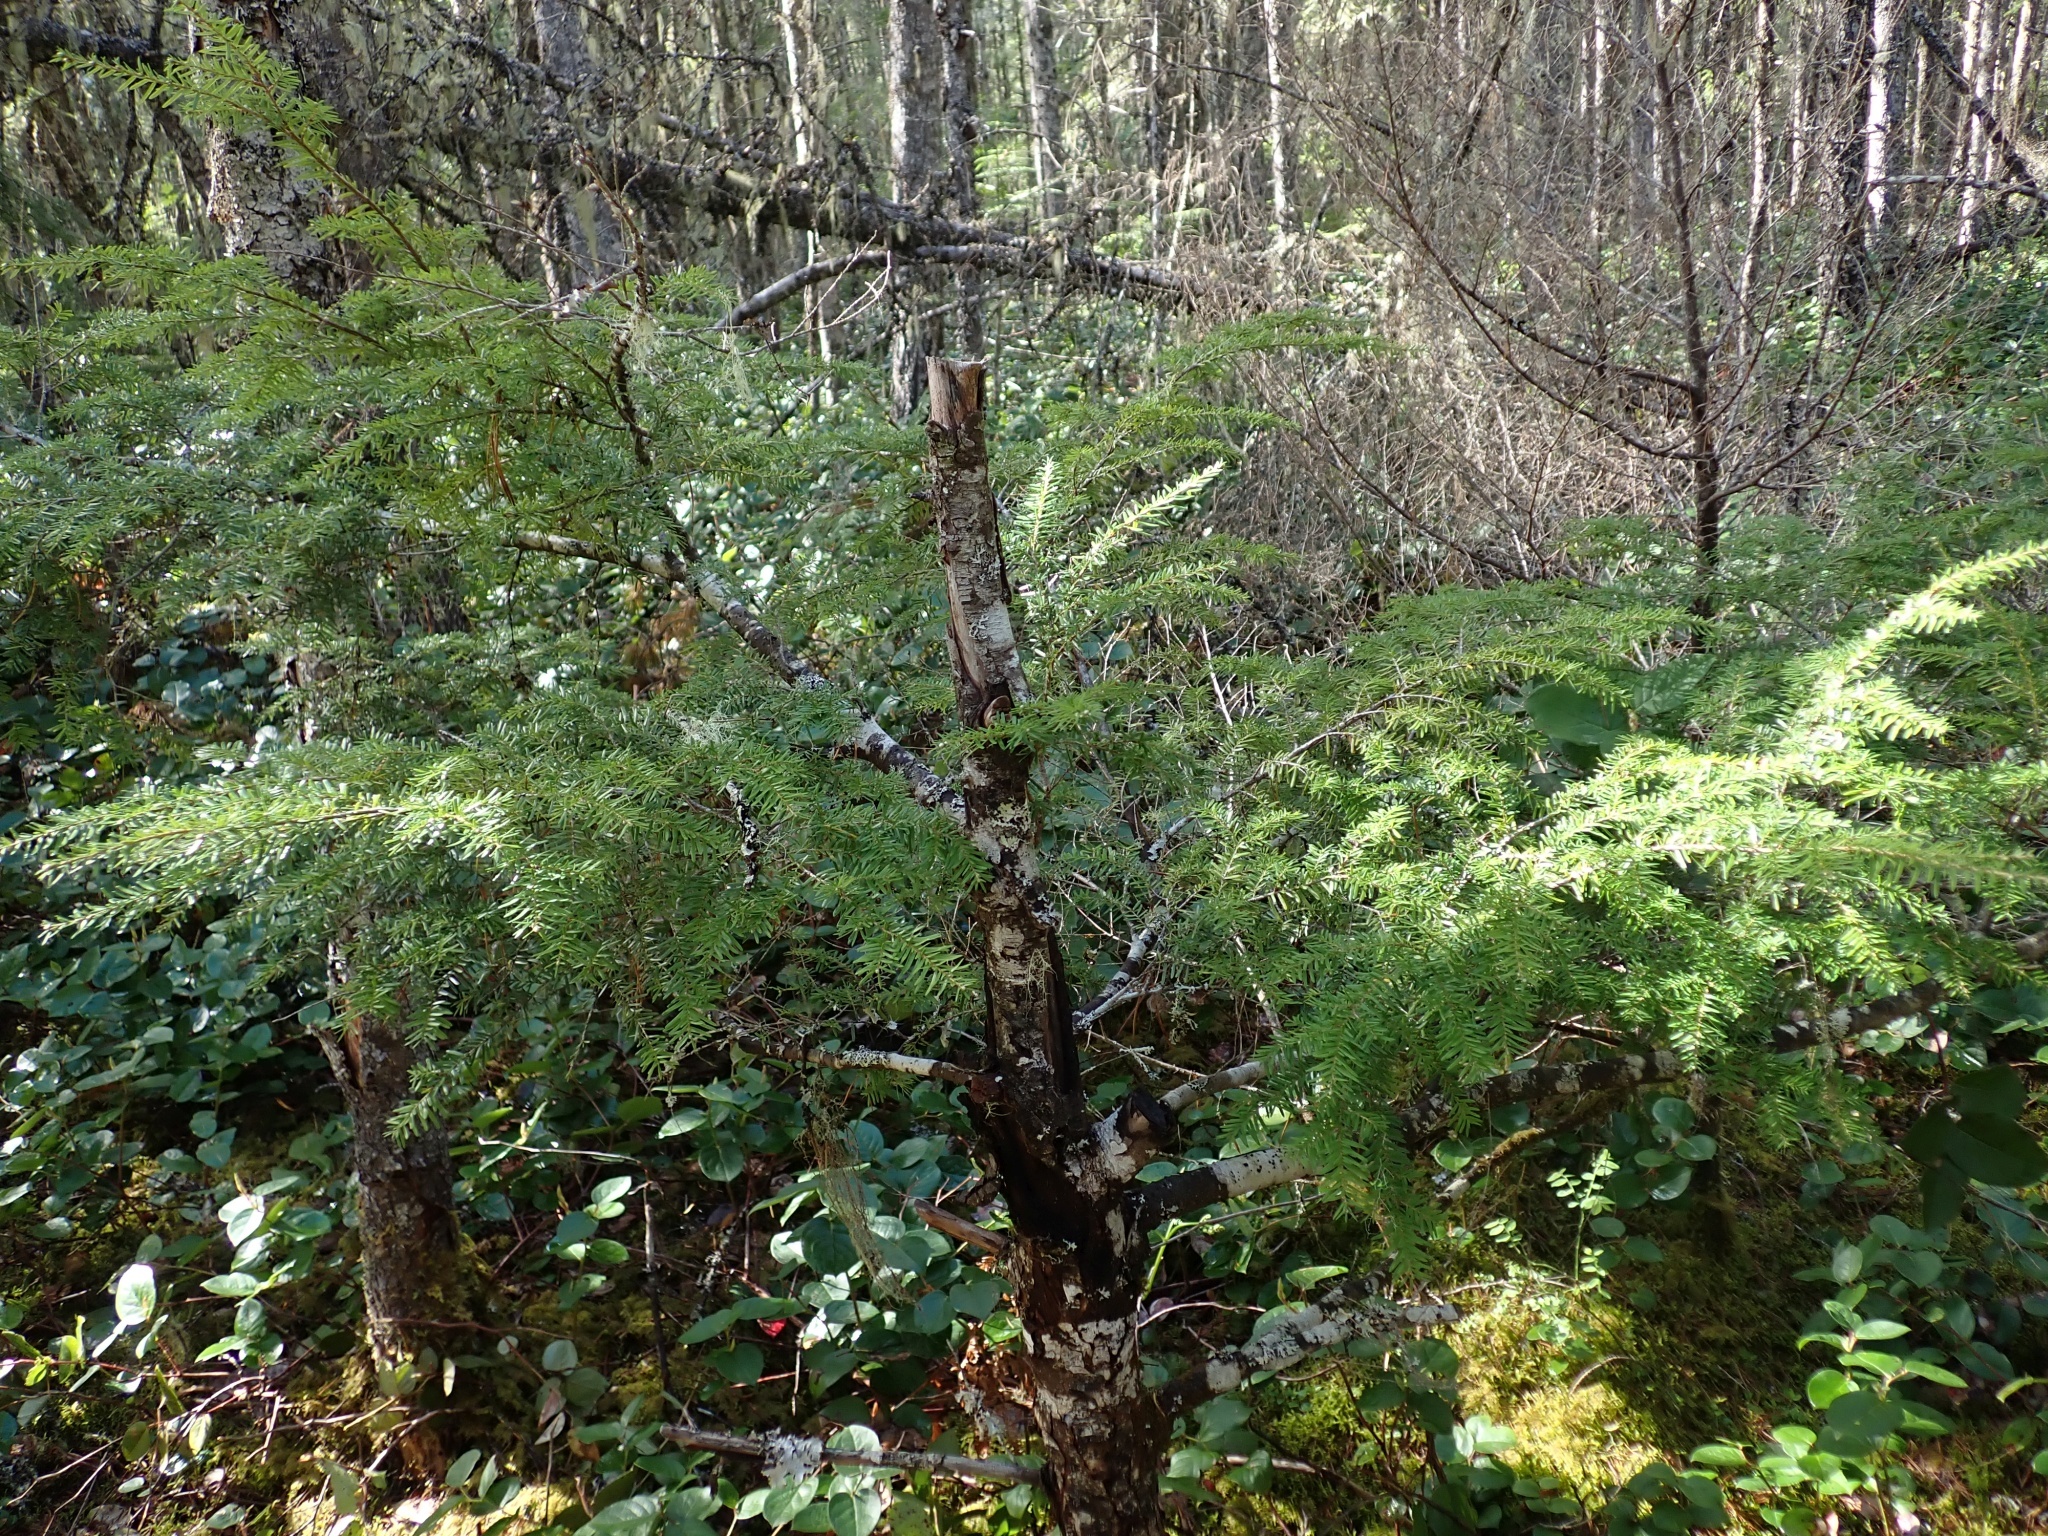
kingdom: Plantae
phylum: Tracheophyta
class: Pinopsida
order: Pinales
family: Pinaceae
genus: Tsuga
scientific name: Tsuga heterophylla
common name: Western hemlock
